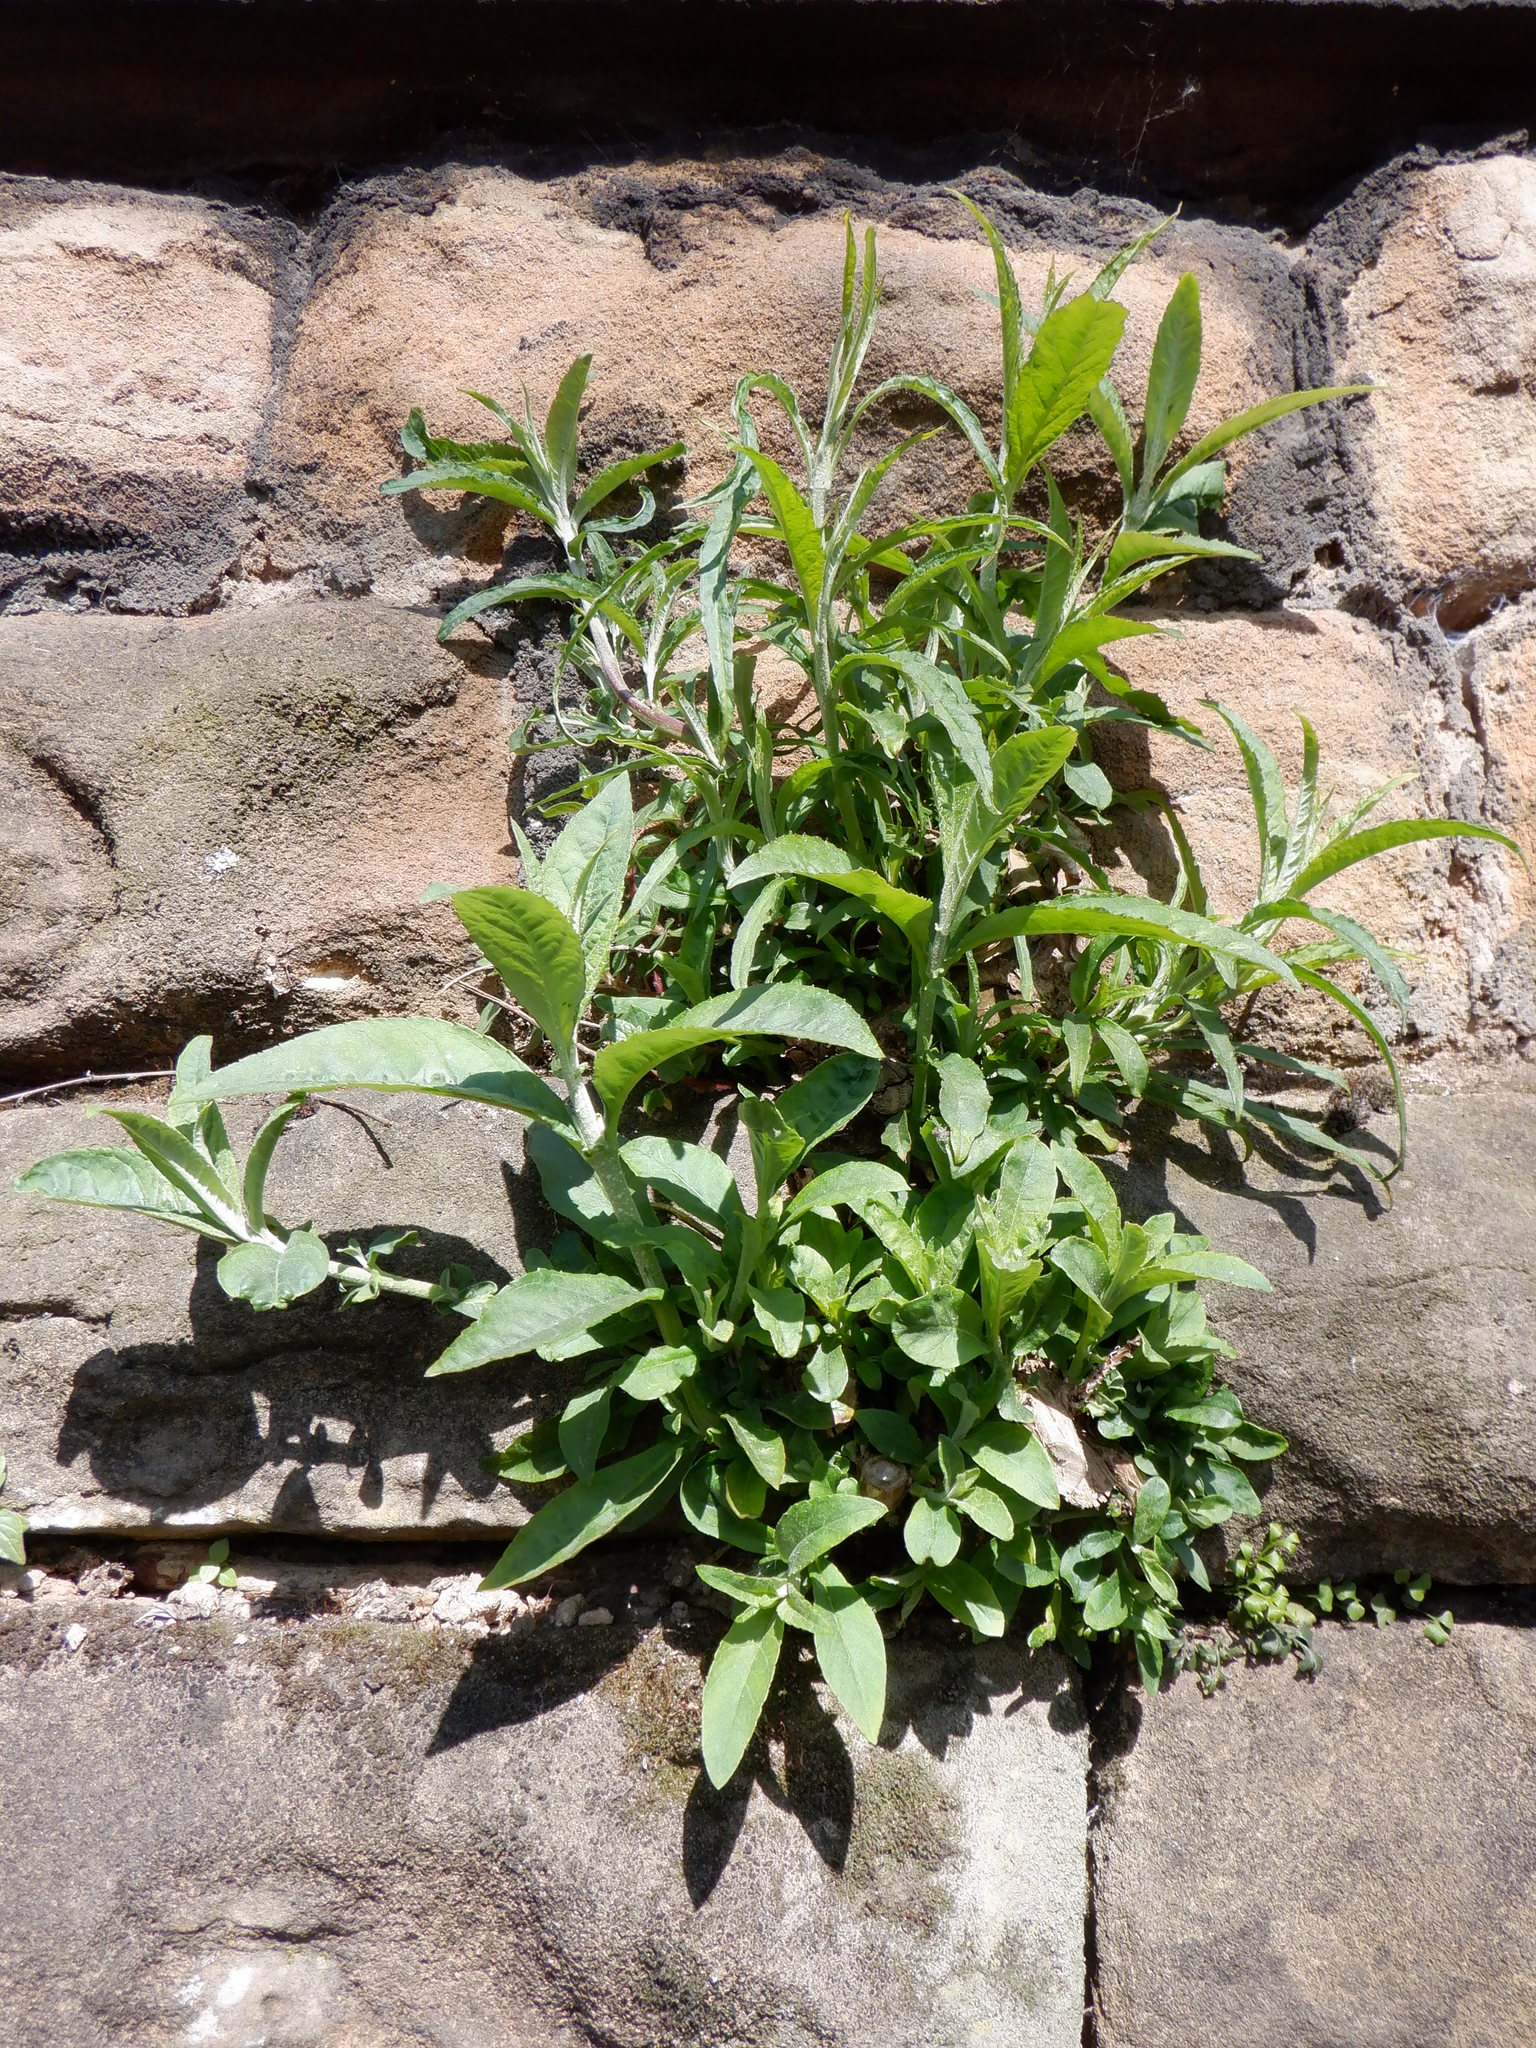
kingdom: Plantae
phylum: Tracheophyta
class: Magnoliopsida
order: Lamiales
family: Scrophulariaceae
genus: Buddleja
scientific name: Buddleja davidii
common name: Butterfly-bush
